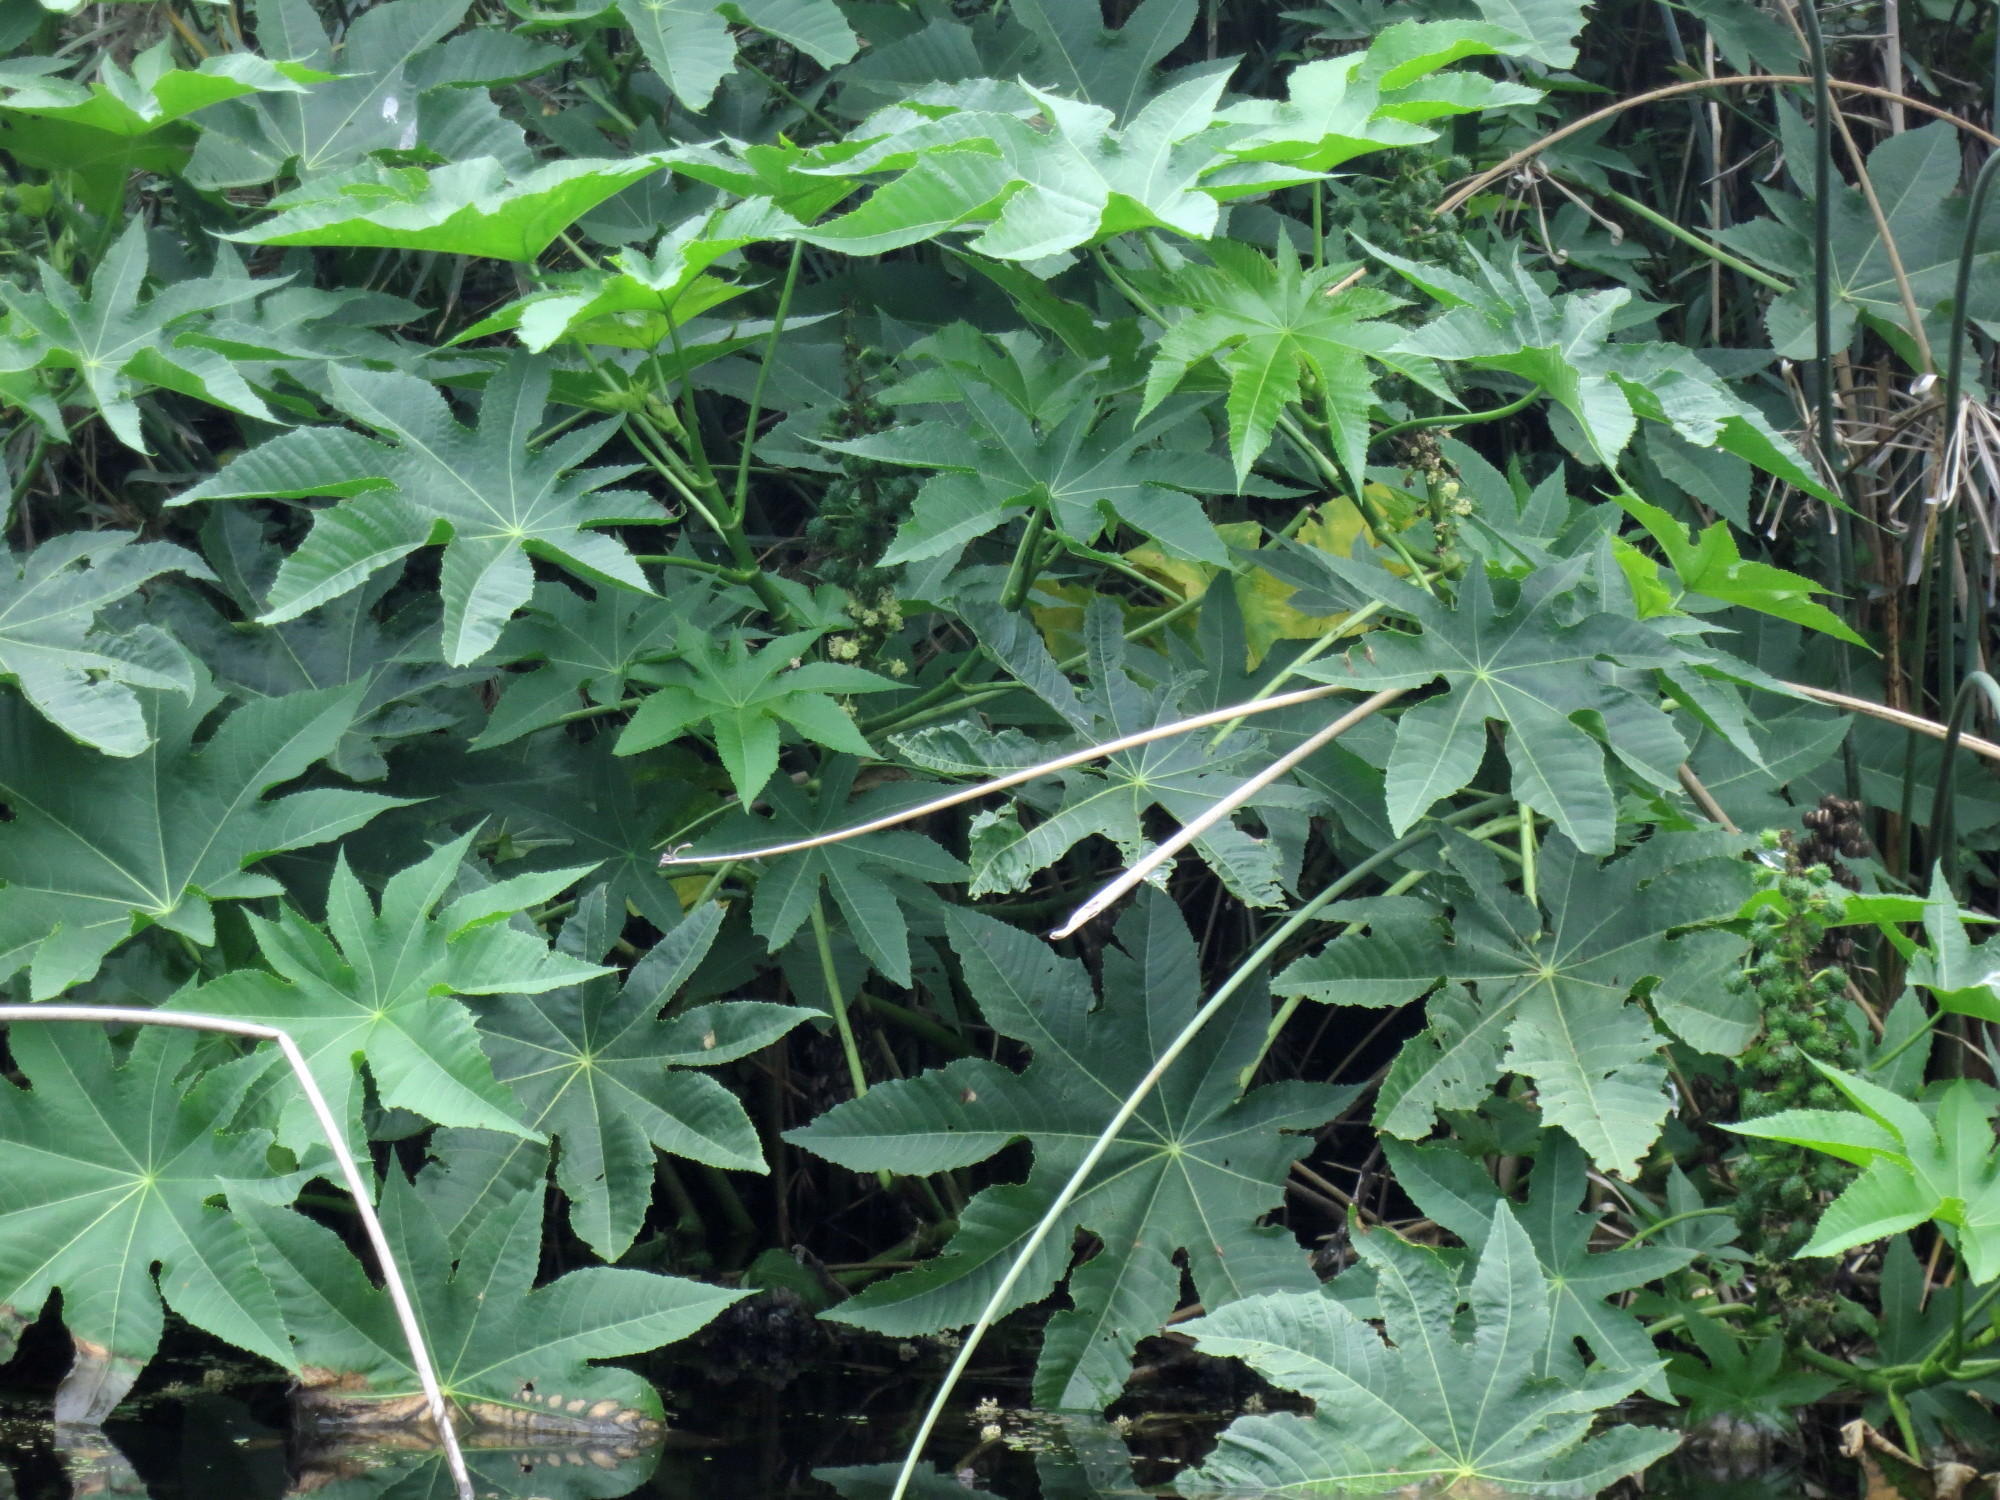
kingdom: Plantae
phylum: Tracheophyta
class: Magnoliopsida
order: Malpighiales
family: Euphorbiaceae
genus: Ricinus
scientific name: Ricinus communis
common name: Castor-oil-plant
